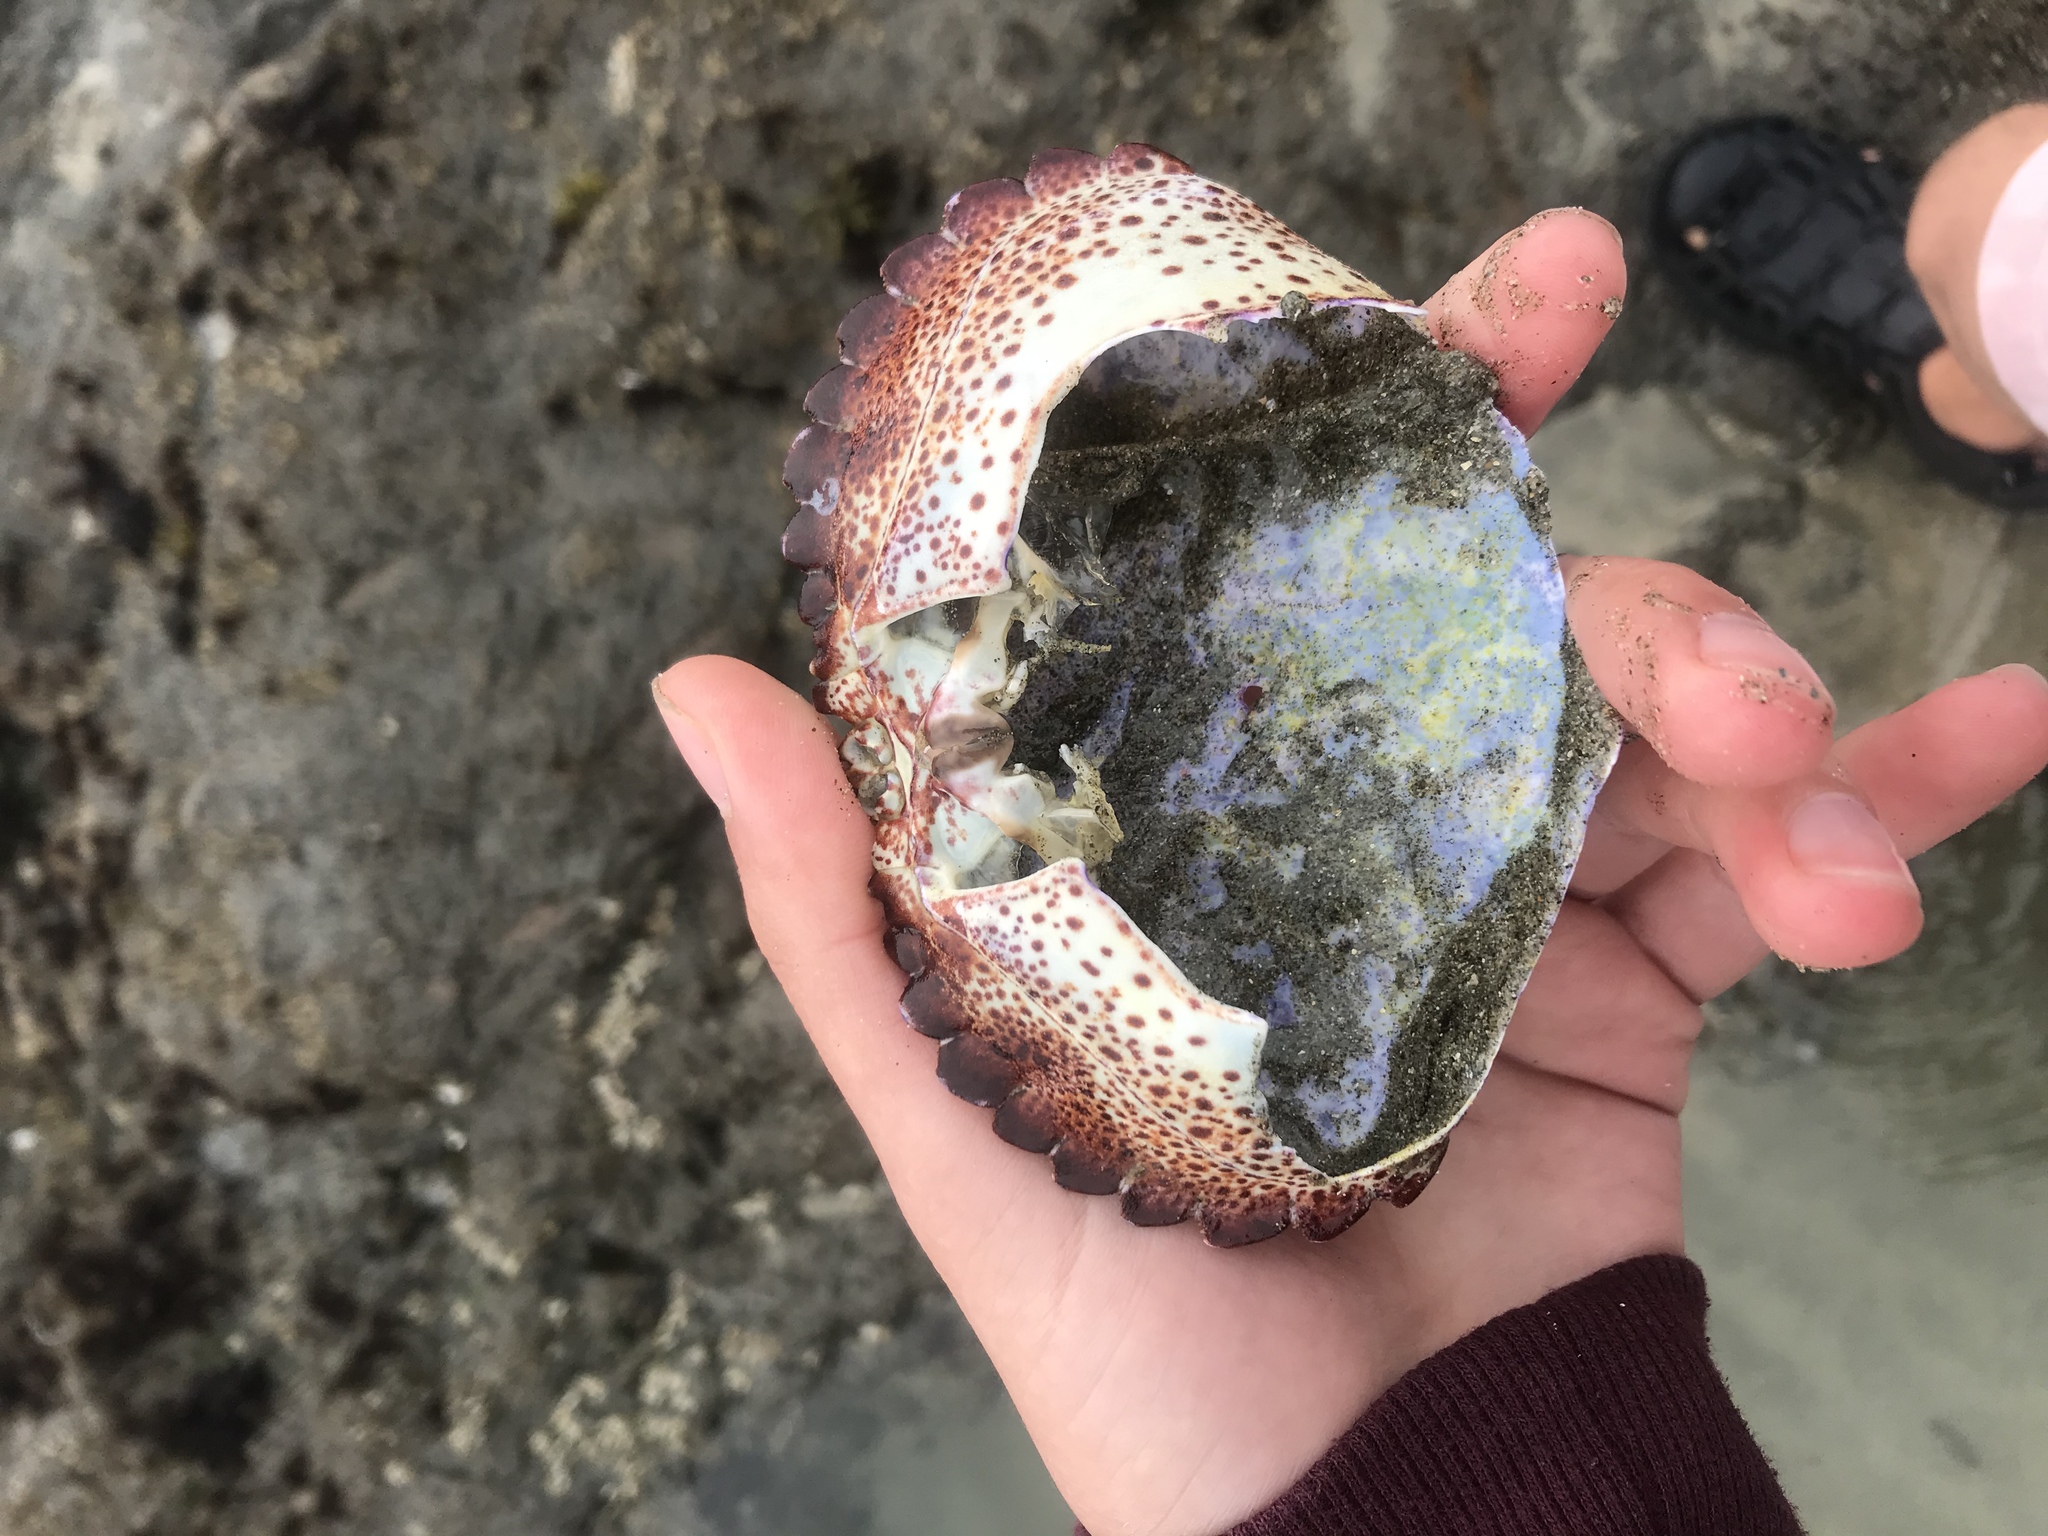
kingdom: Animalia
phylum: Arthropoda
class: Malacostraca
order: Decapoda
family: Cancridae
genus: Romaleon
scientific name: Romaleon antennarium
